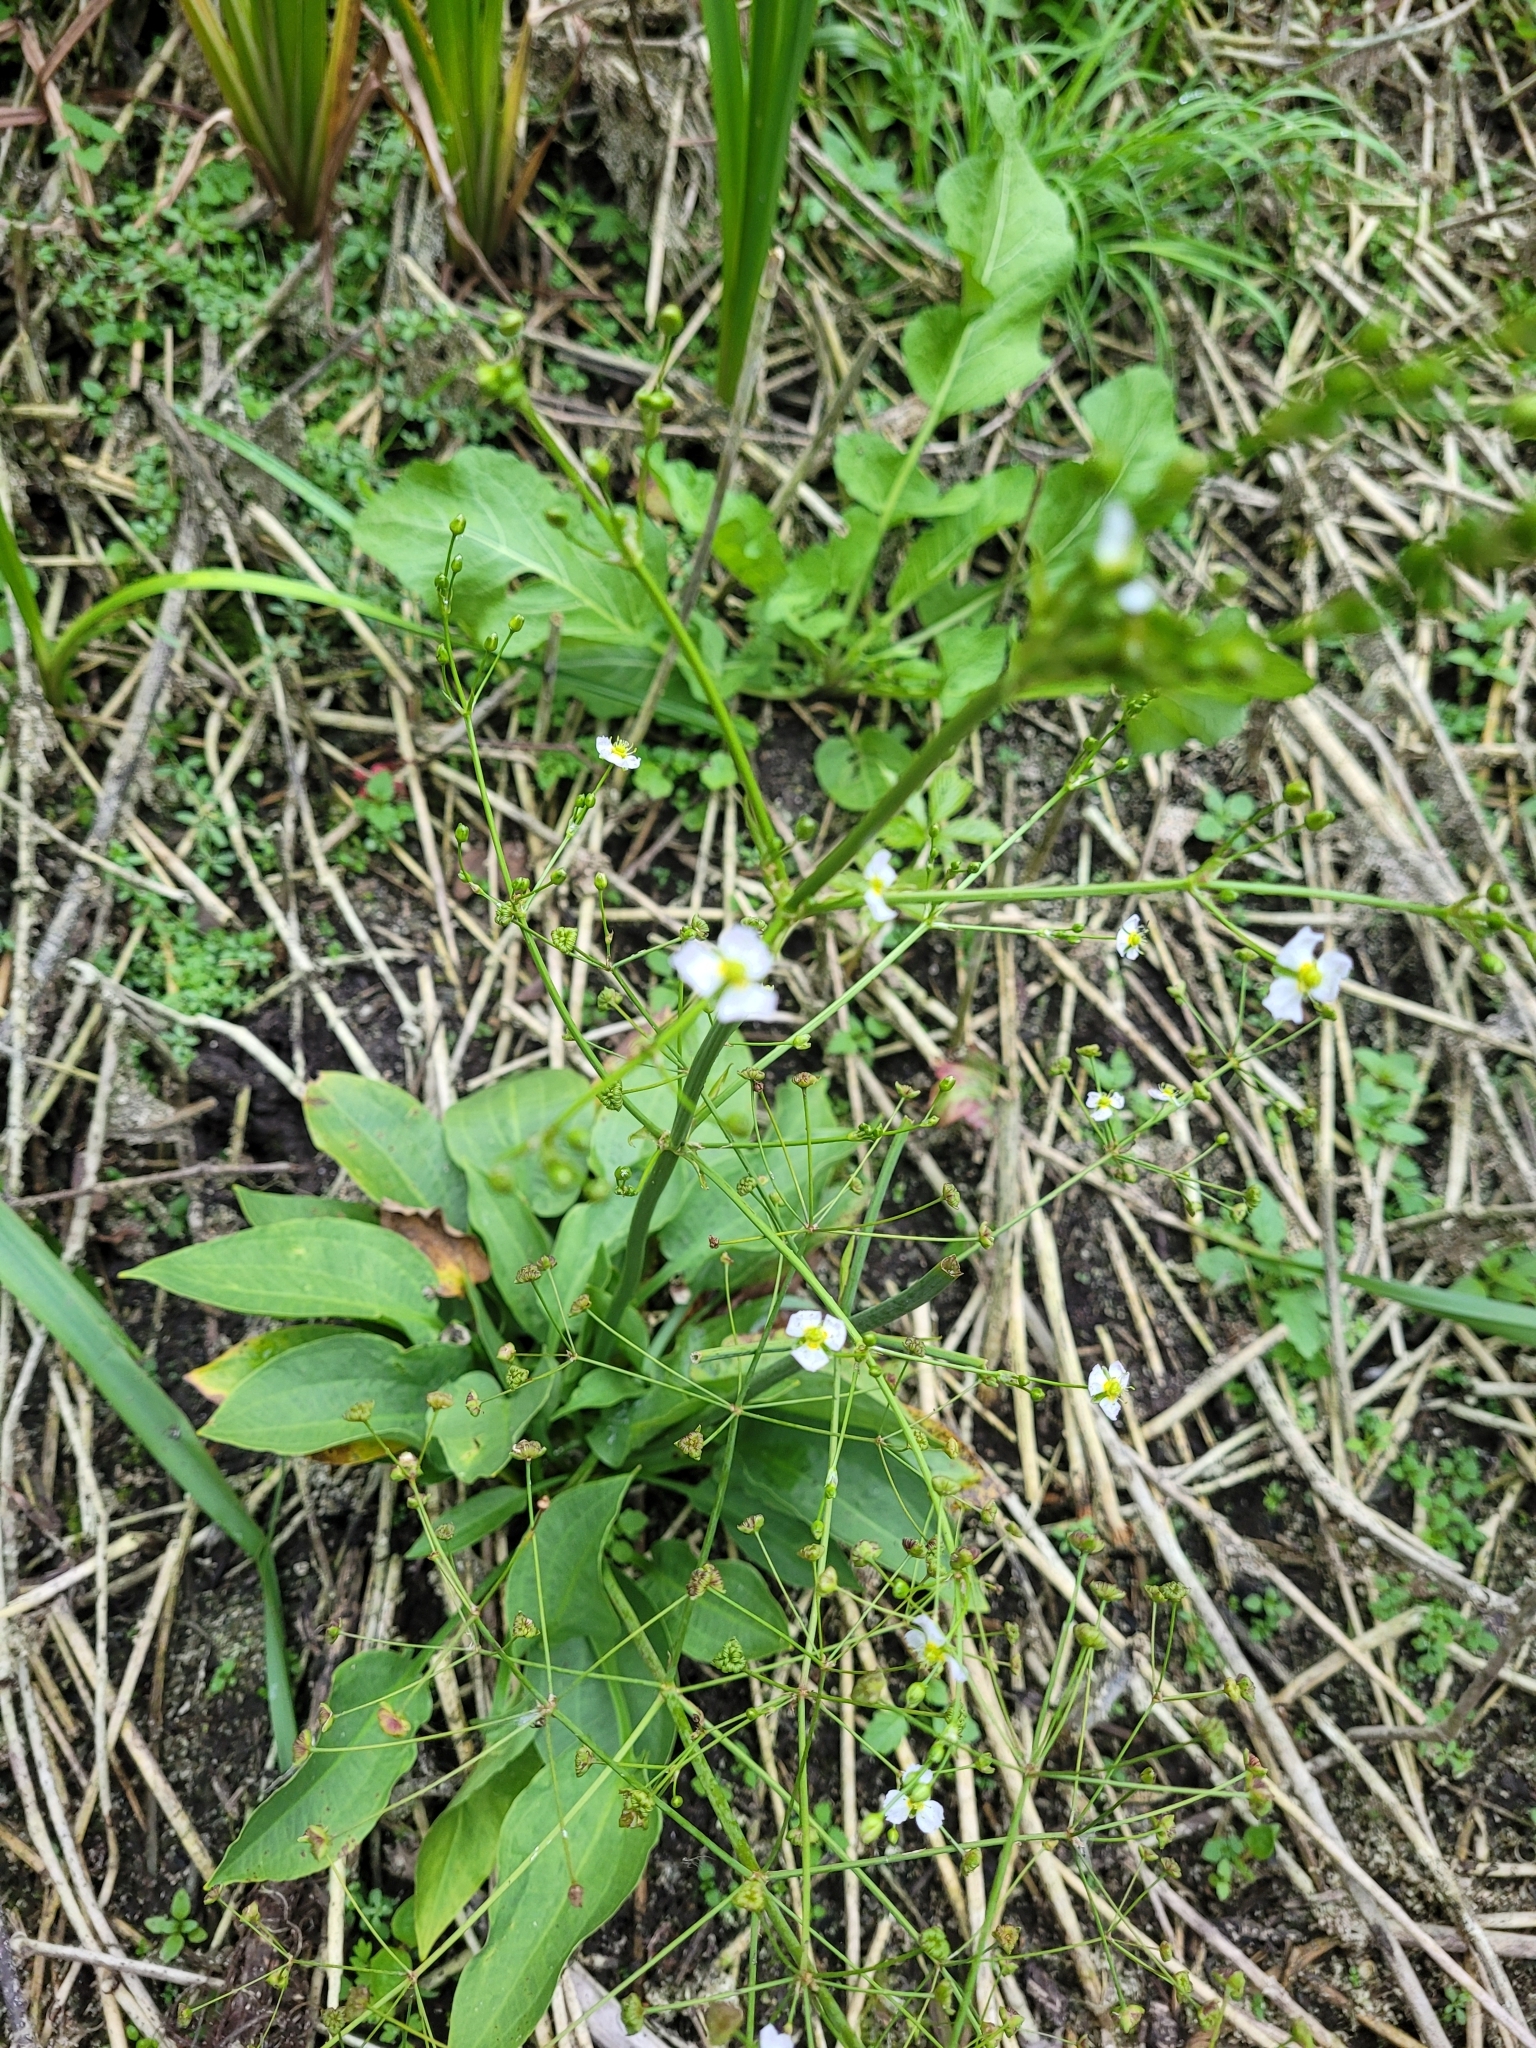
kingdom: Plantae
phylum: Tracheophyta
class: Liliopsida
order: Alismatales
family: Alismataceae
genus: Alisma
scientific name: Alisma plantago-aquatica
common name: Water-plantain
